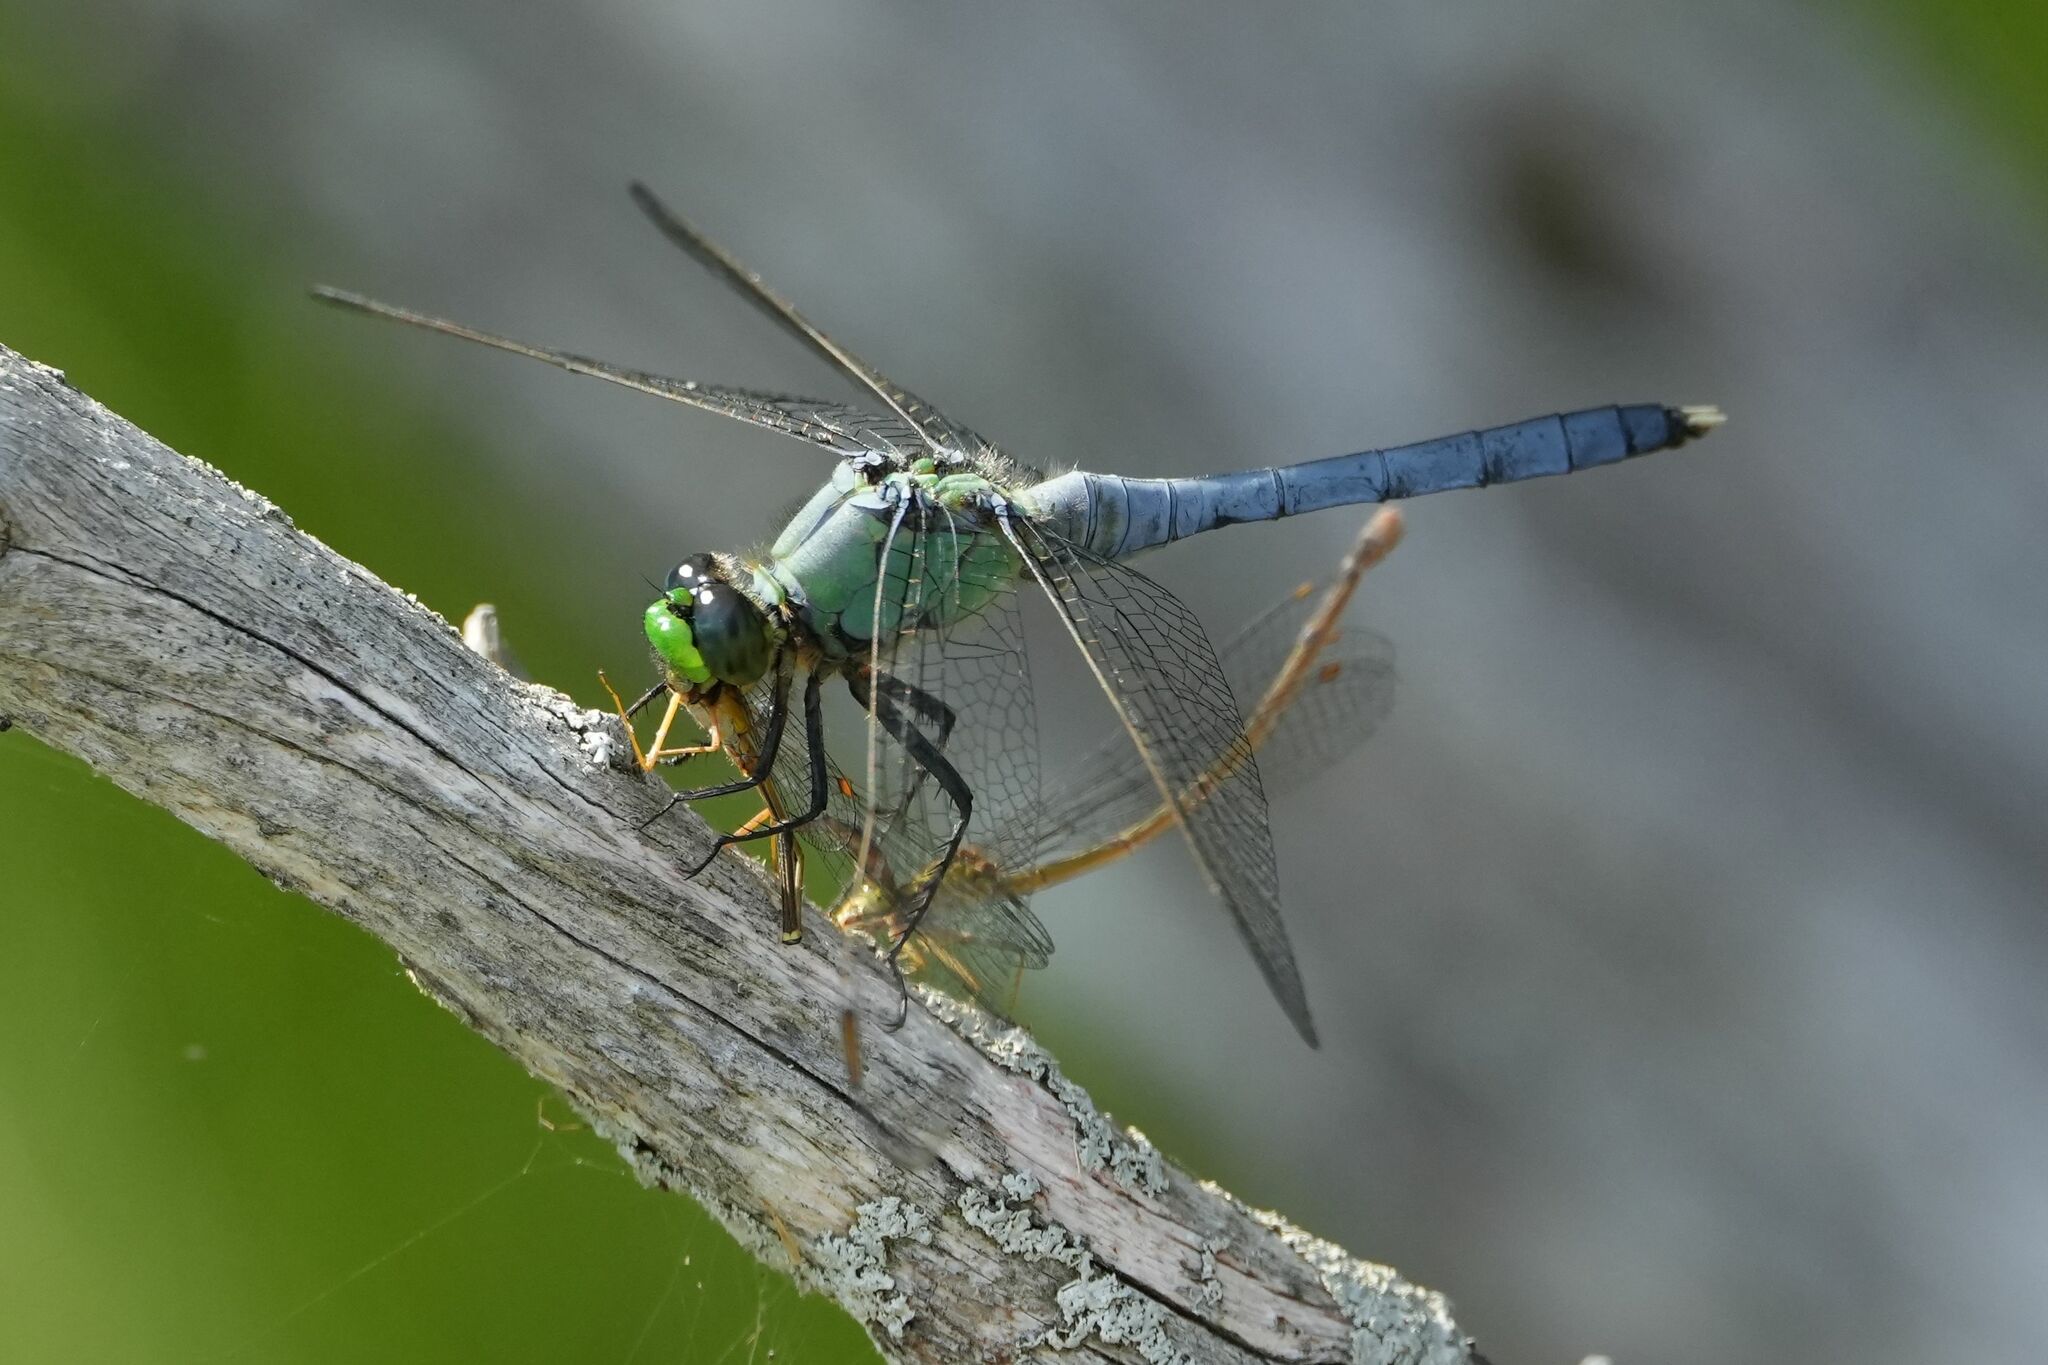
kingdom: Animalia
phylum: Arthropoda
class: Insecta
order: Odonata
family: Libellulidae
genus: Erythemis
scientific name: Erythemis simplicicollis
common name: Eastern pondhawk
